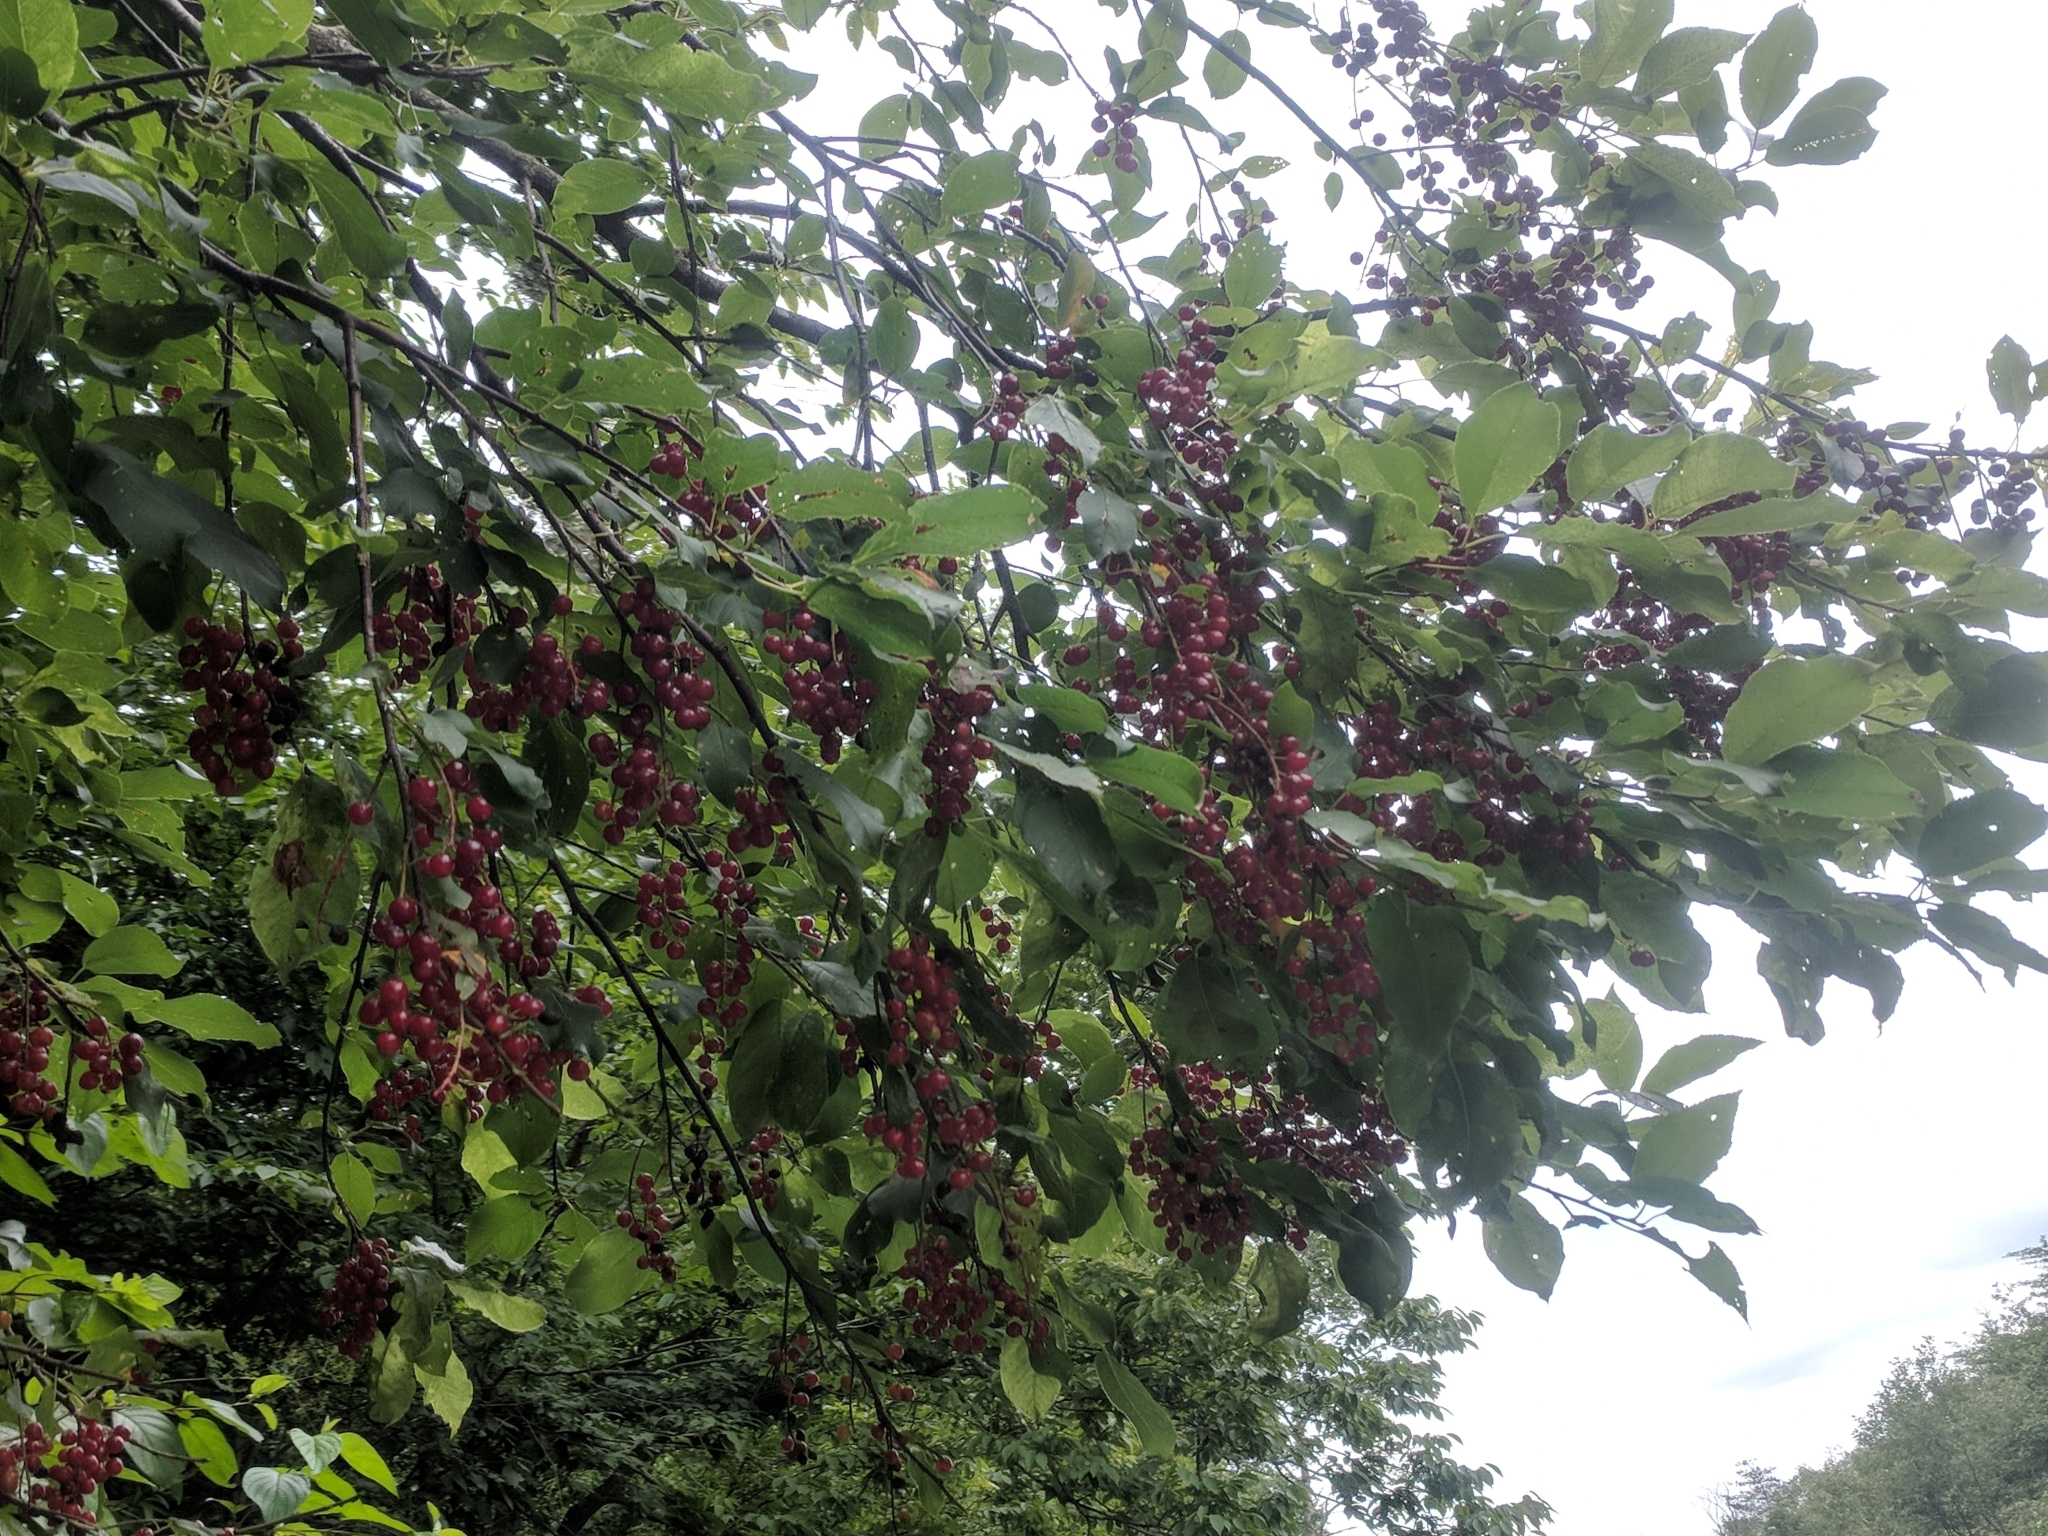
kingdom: Plantae
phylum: Tracheophyta
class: Magnoliopsida
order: Rosales
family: Rosaceae
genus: Prunus
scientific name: Prunus virginiana
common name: Chokecherry
